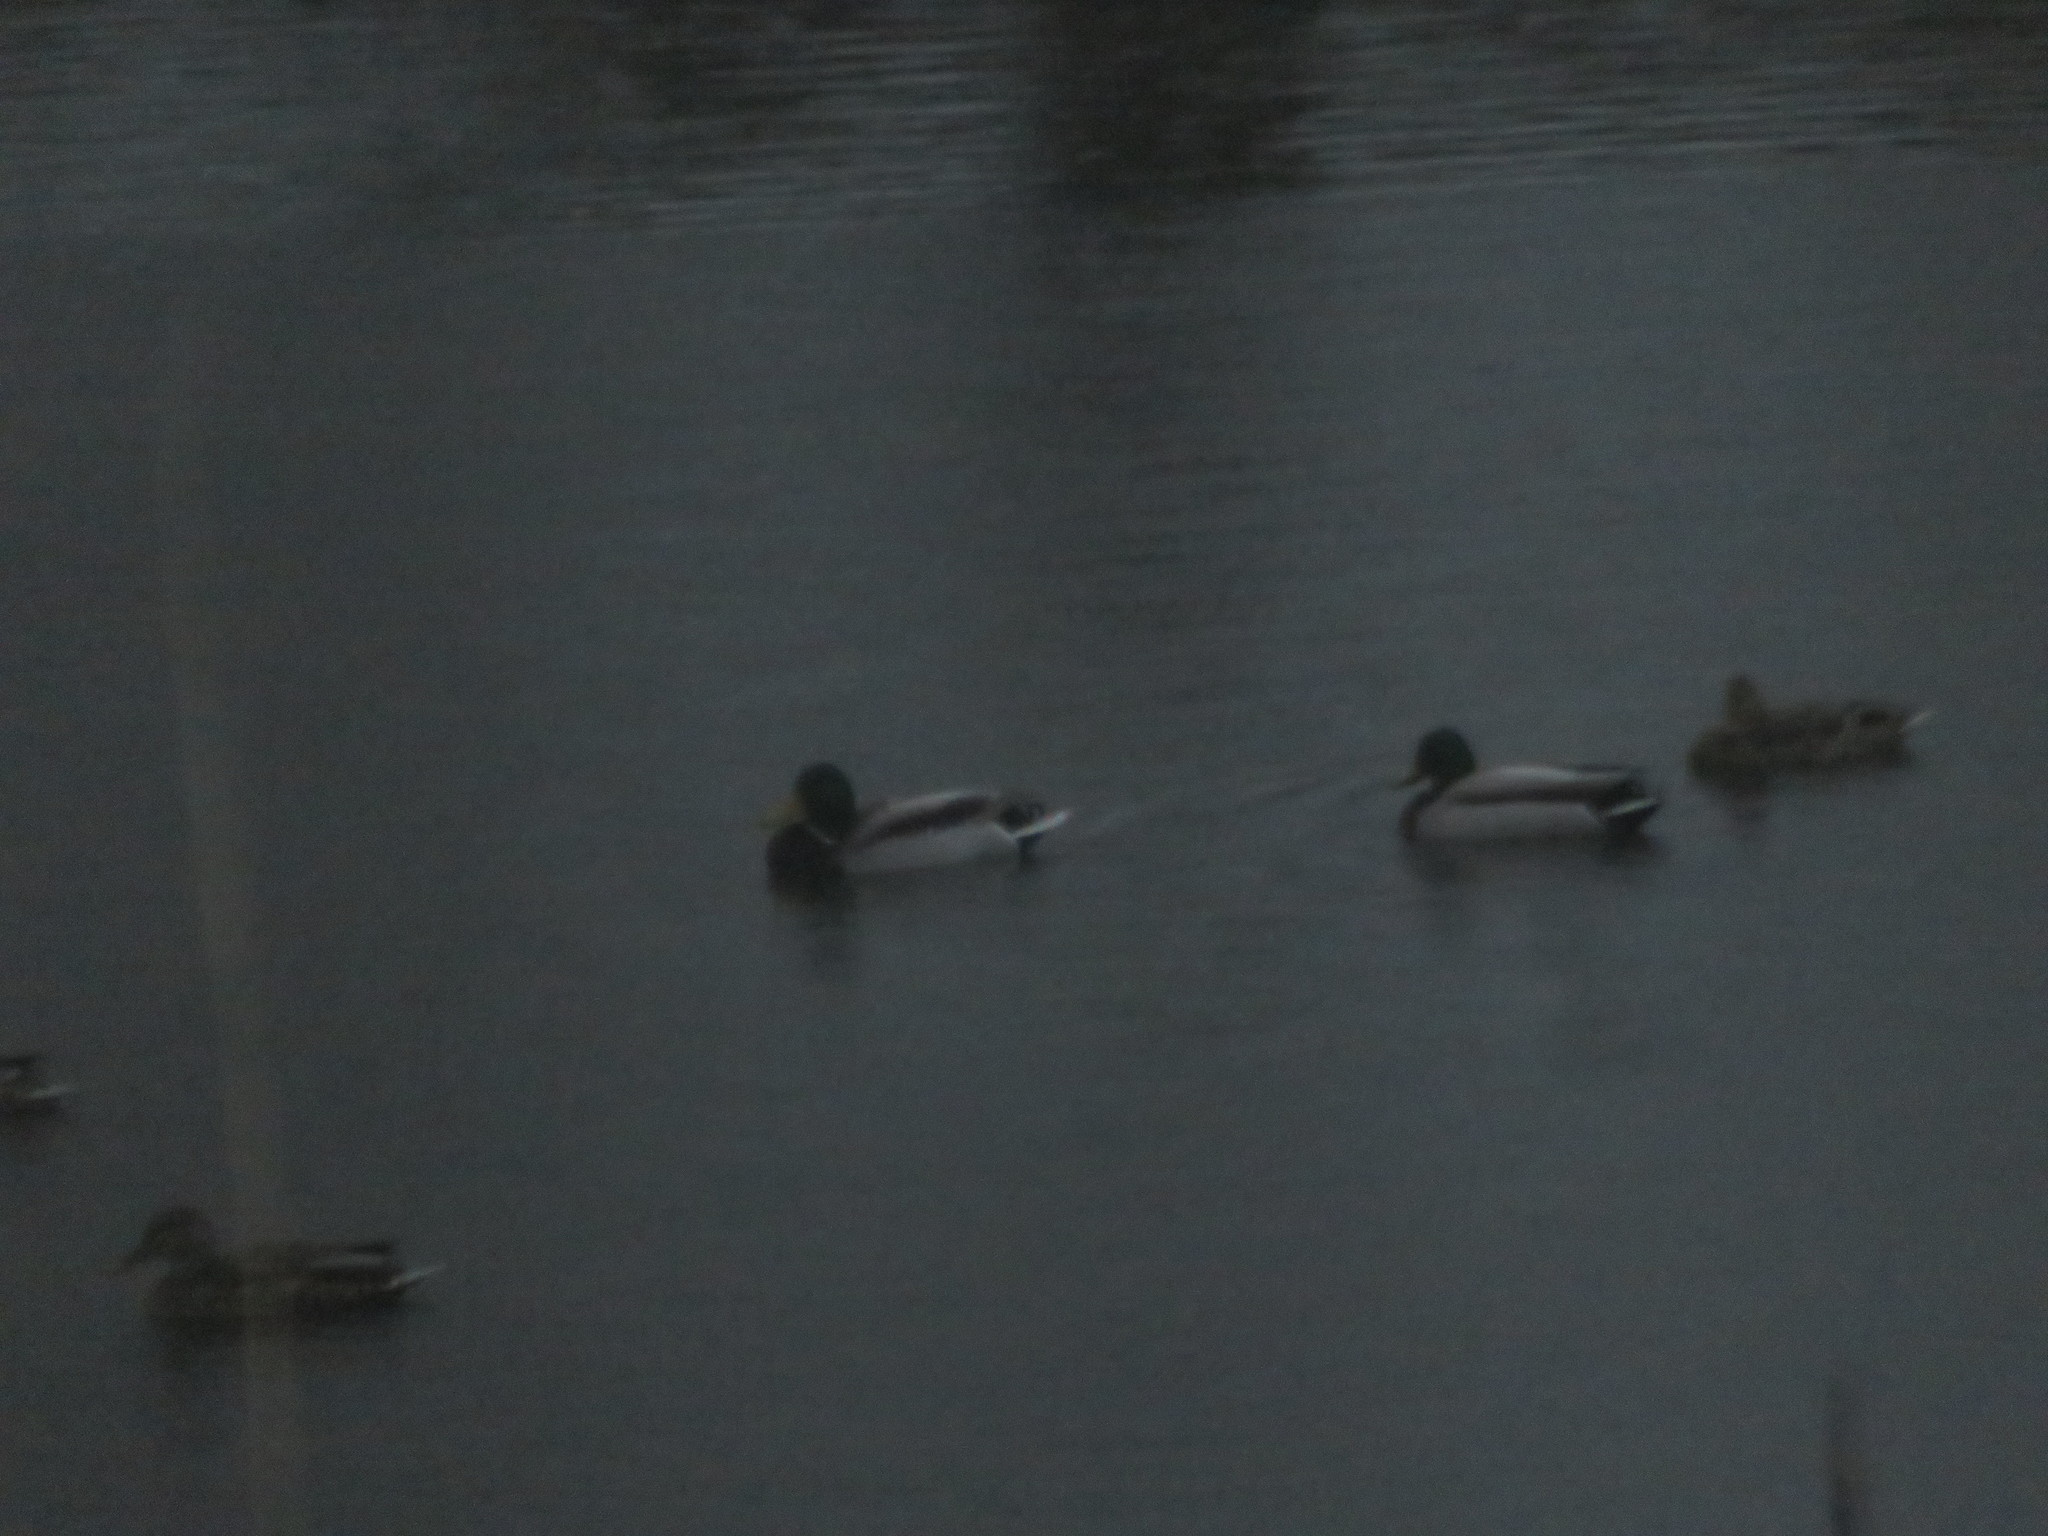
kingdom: Animalia
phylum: Chordata
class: Aves
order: Anseriformes
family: Anatidae
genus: Anas
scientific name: Anas platyrhynchos
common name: Mallard
